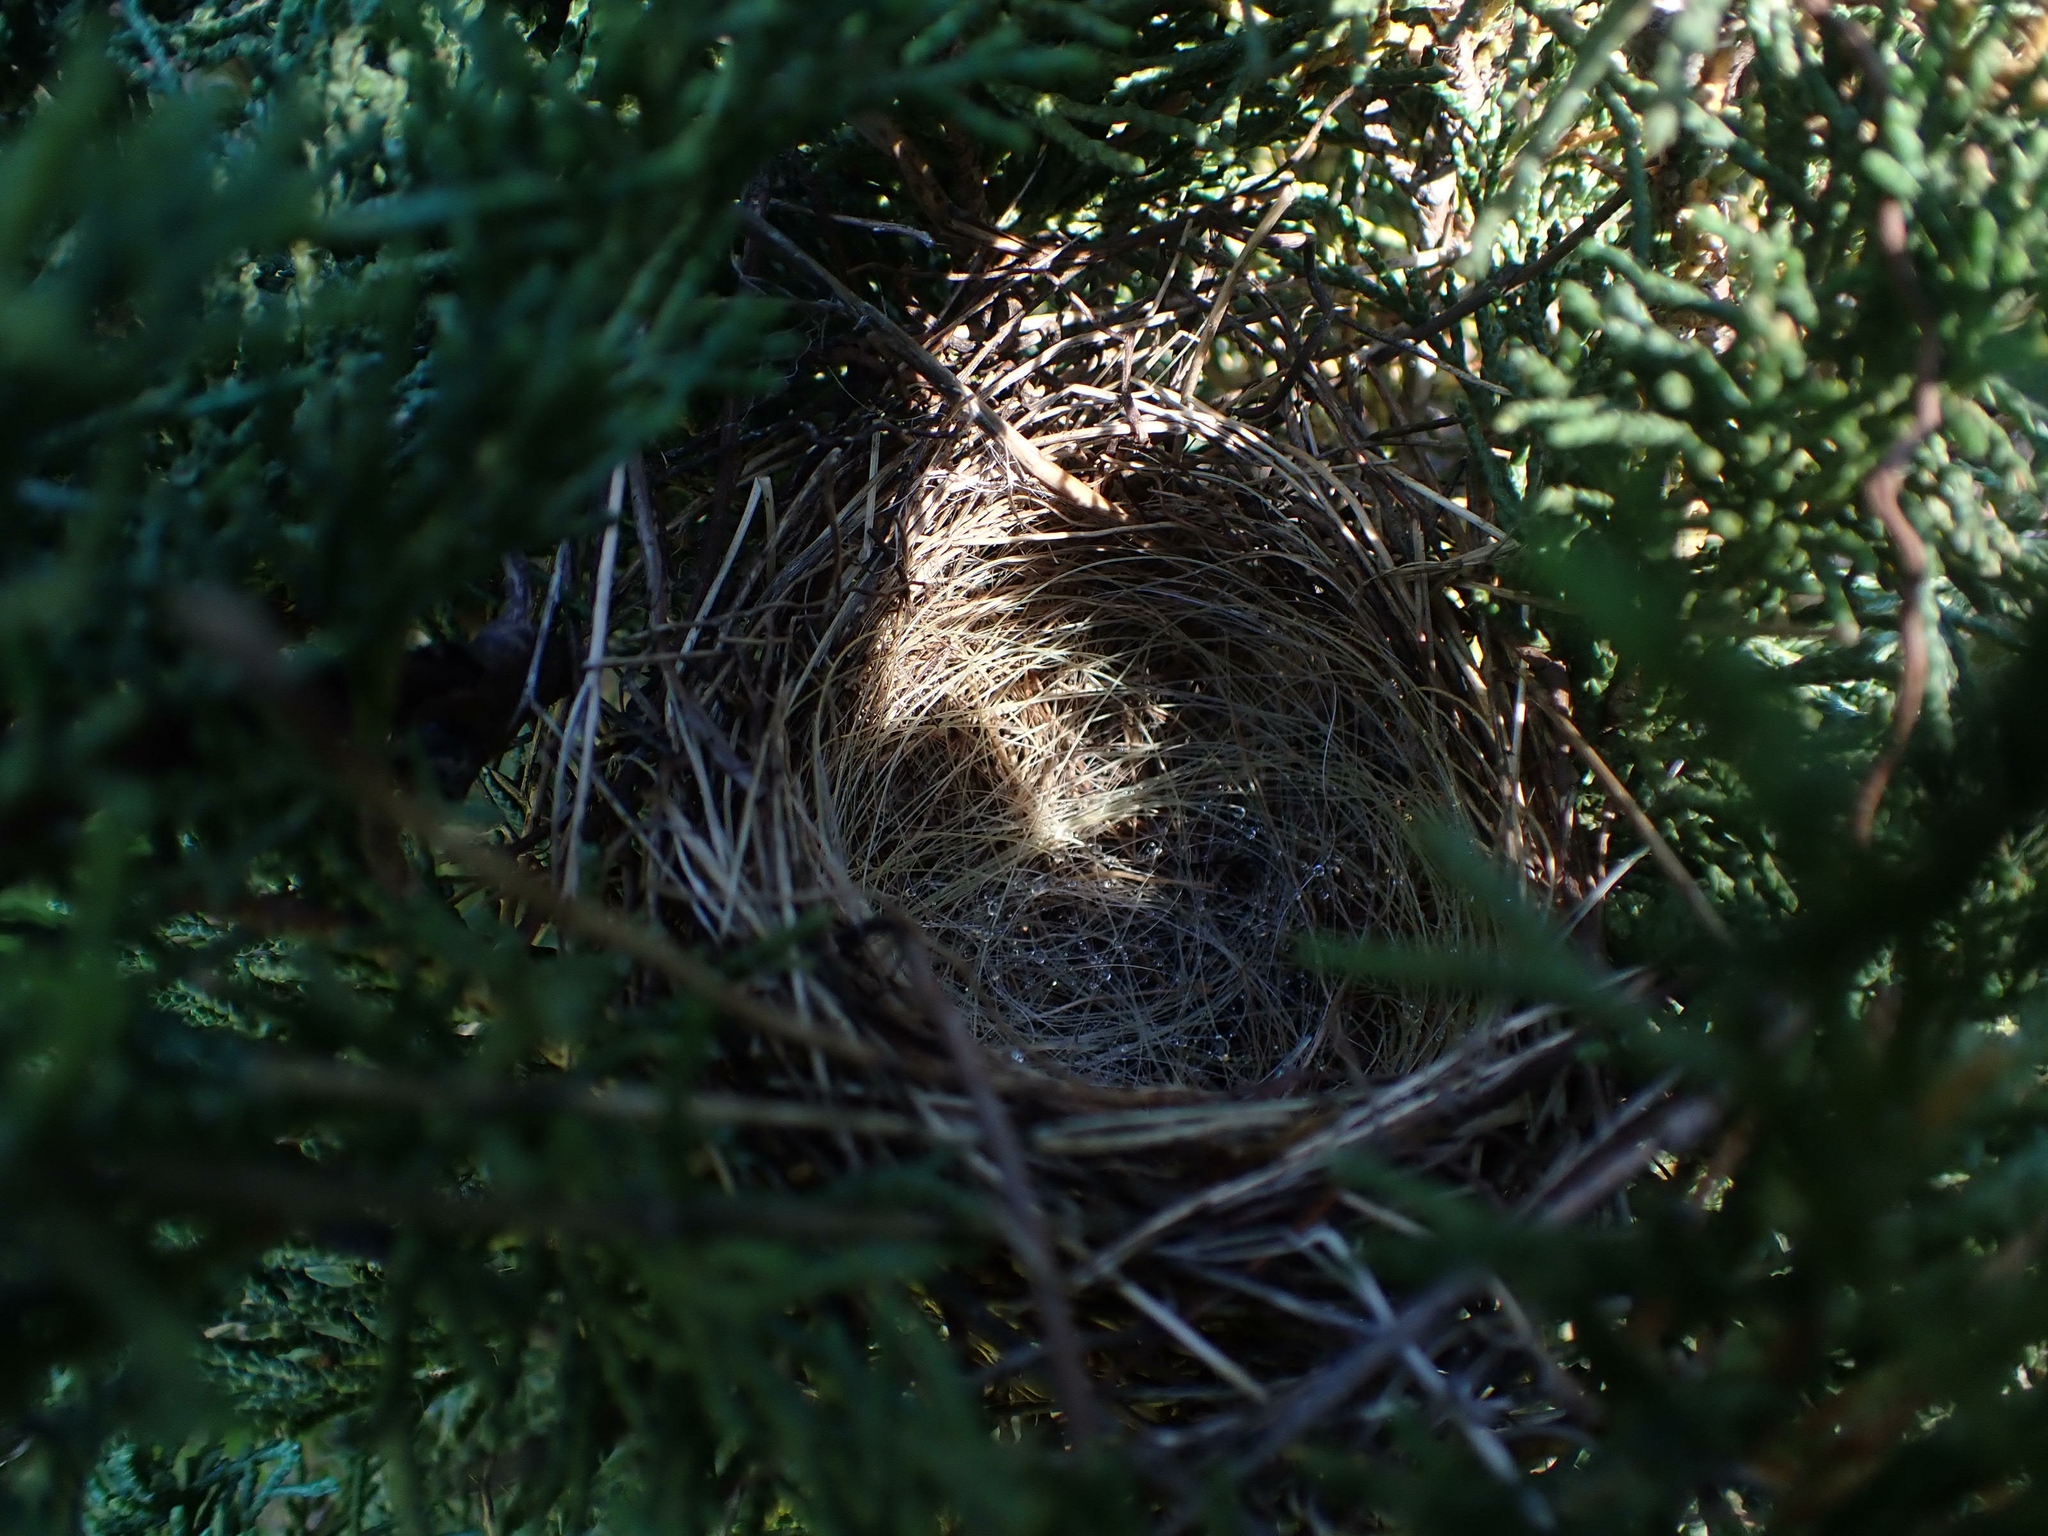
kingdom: Animalia
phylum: Chordata
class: Aves
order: Passeriformes
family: Passerellidae
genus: Spizella
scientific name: Spizella passerina
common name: Chipping sparrow
